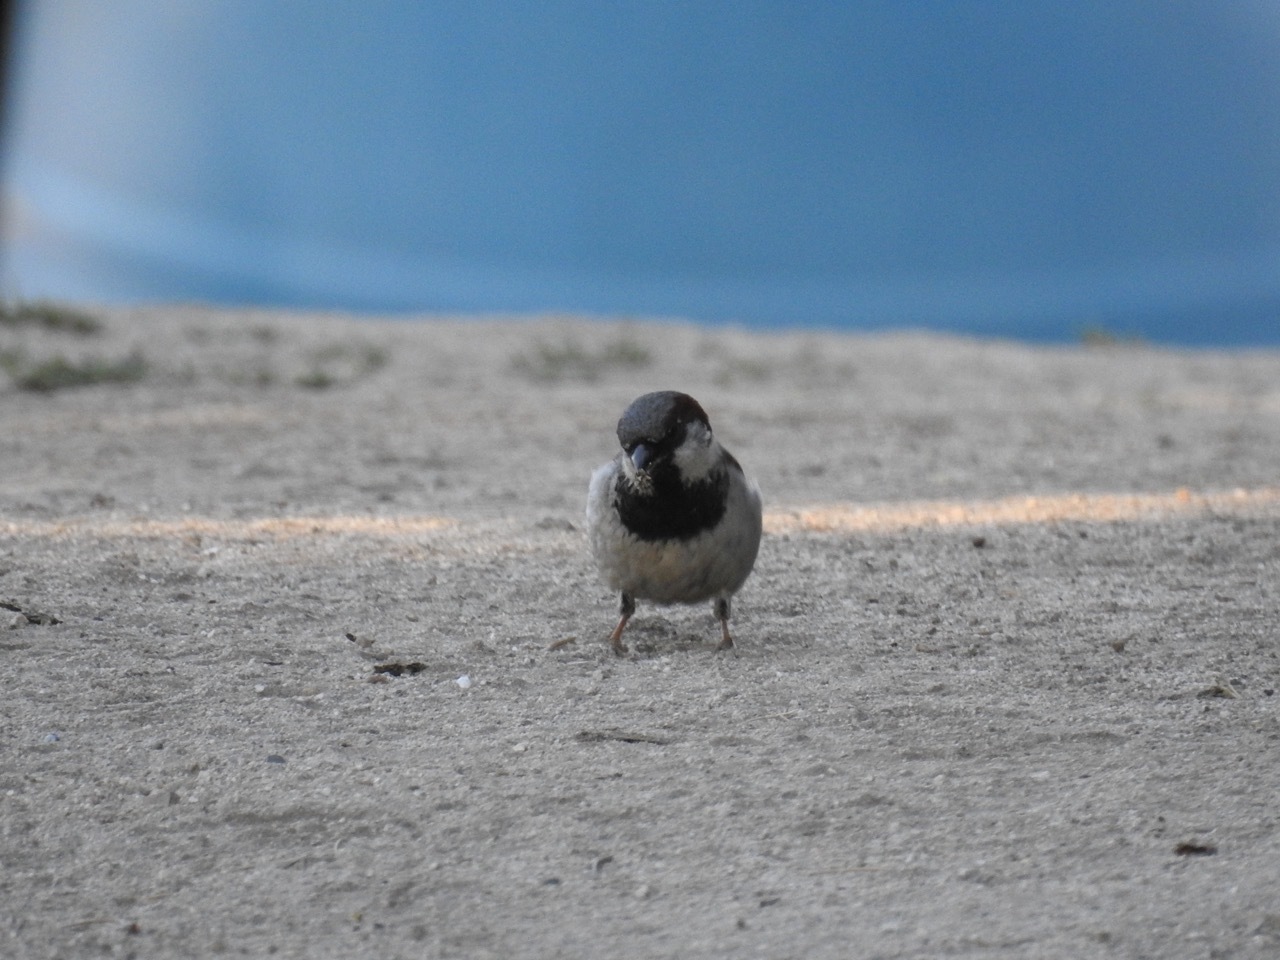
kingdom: Animalia
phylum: Chordata
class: Aves
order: Passeriformes
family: Passeridae
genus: Passer
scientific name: Passer domesticus
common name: House sparrow
